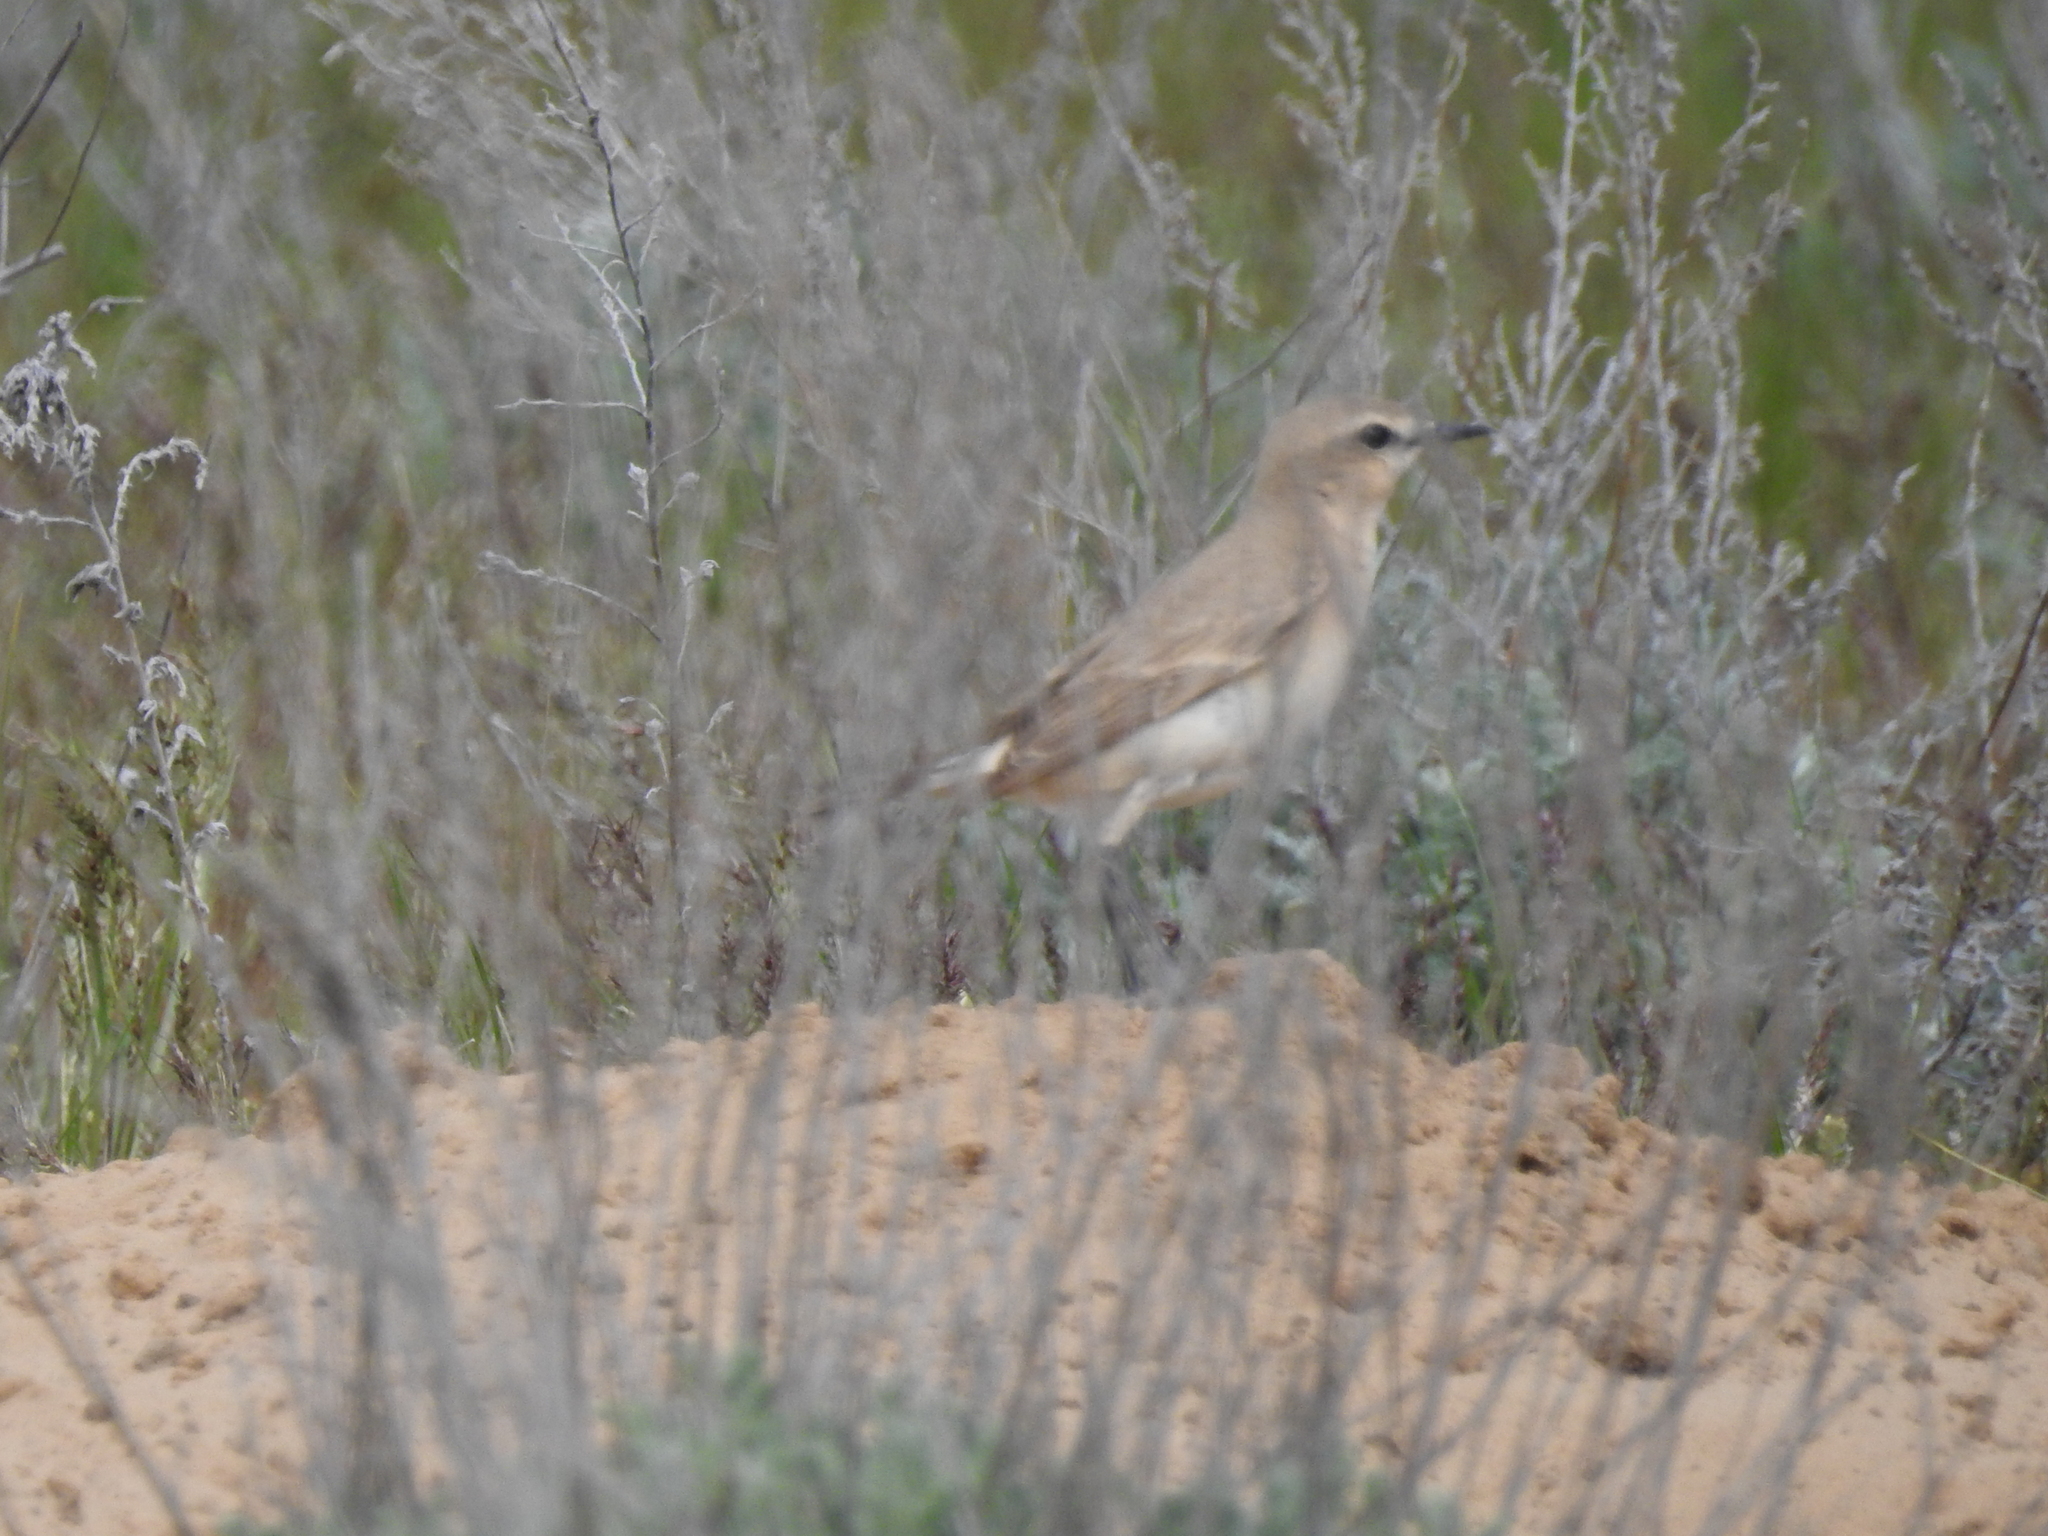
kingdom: Animalia
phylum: Chordata
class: Aves
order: Passeriformes
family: Muscicapidae
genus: Oenanthe
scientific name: Oenanthe isabellina
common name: Isabelline wheatear
